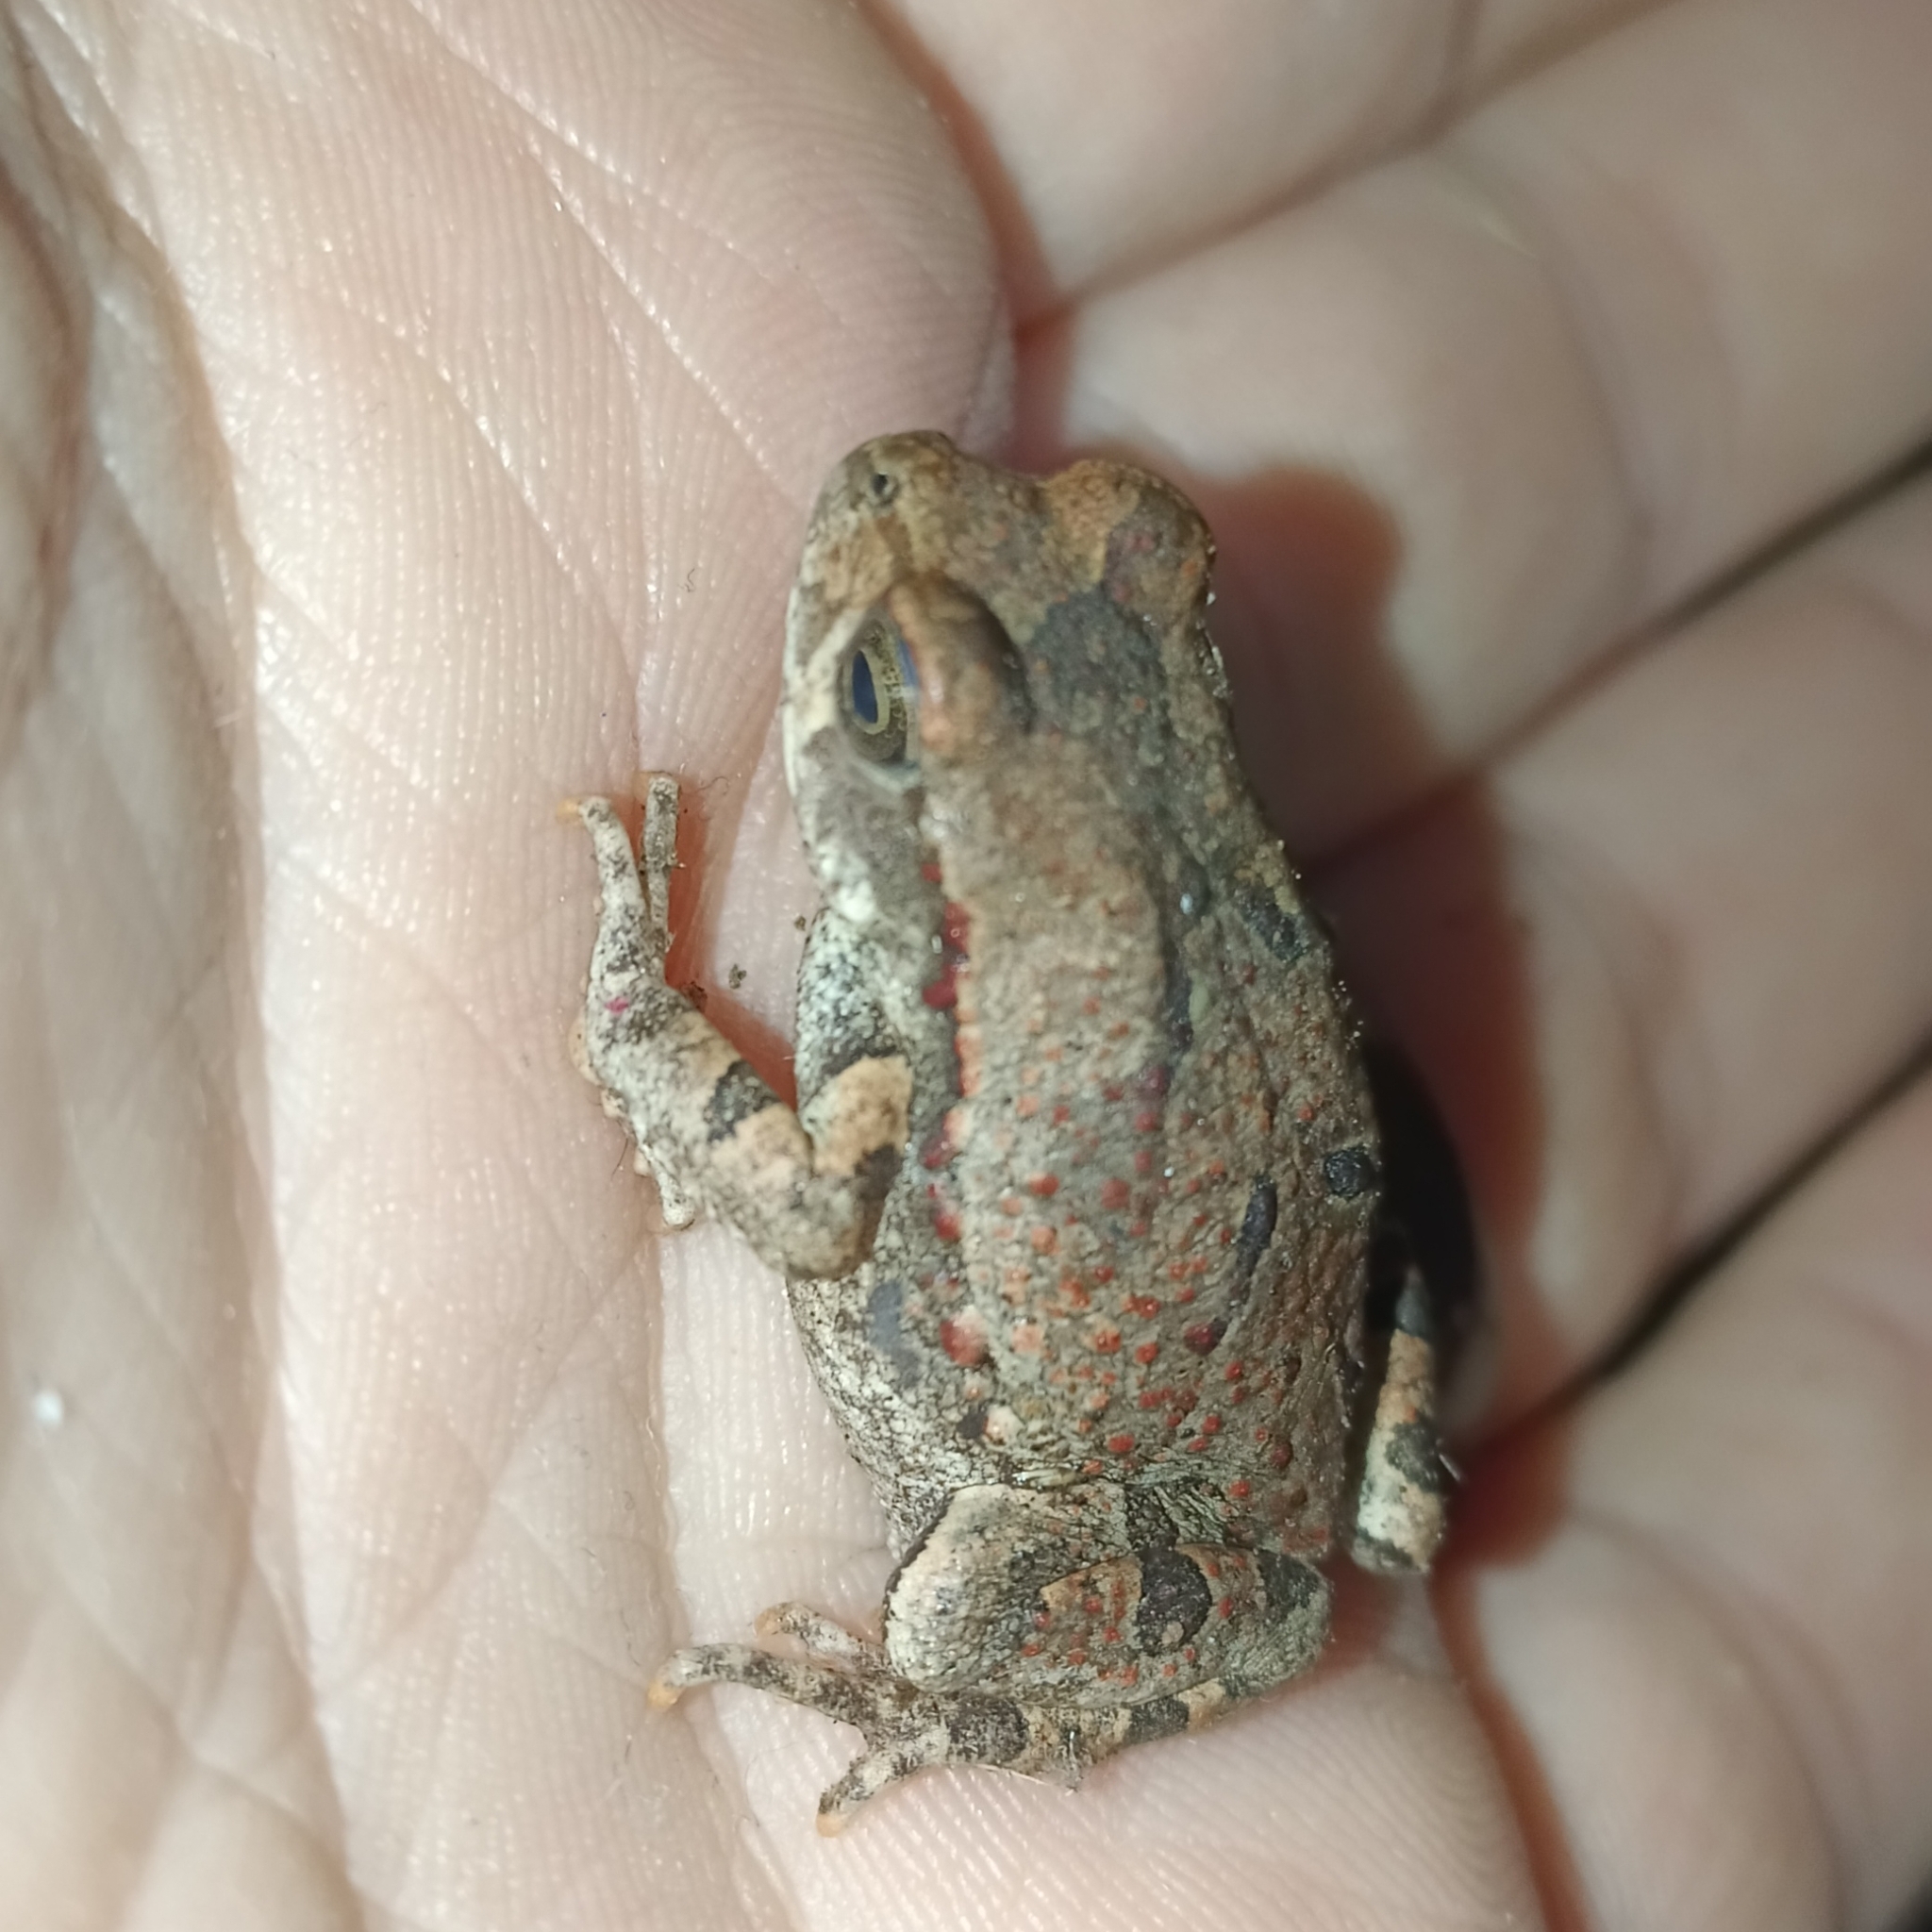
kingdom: Animalia
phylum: Chordata
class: Amphibia
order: Anura
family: Bufonidae
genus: Schismaderma
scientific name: Schismaderma carens
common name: African split-skin toad
